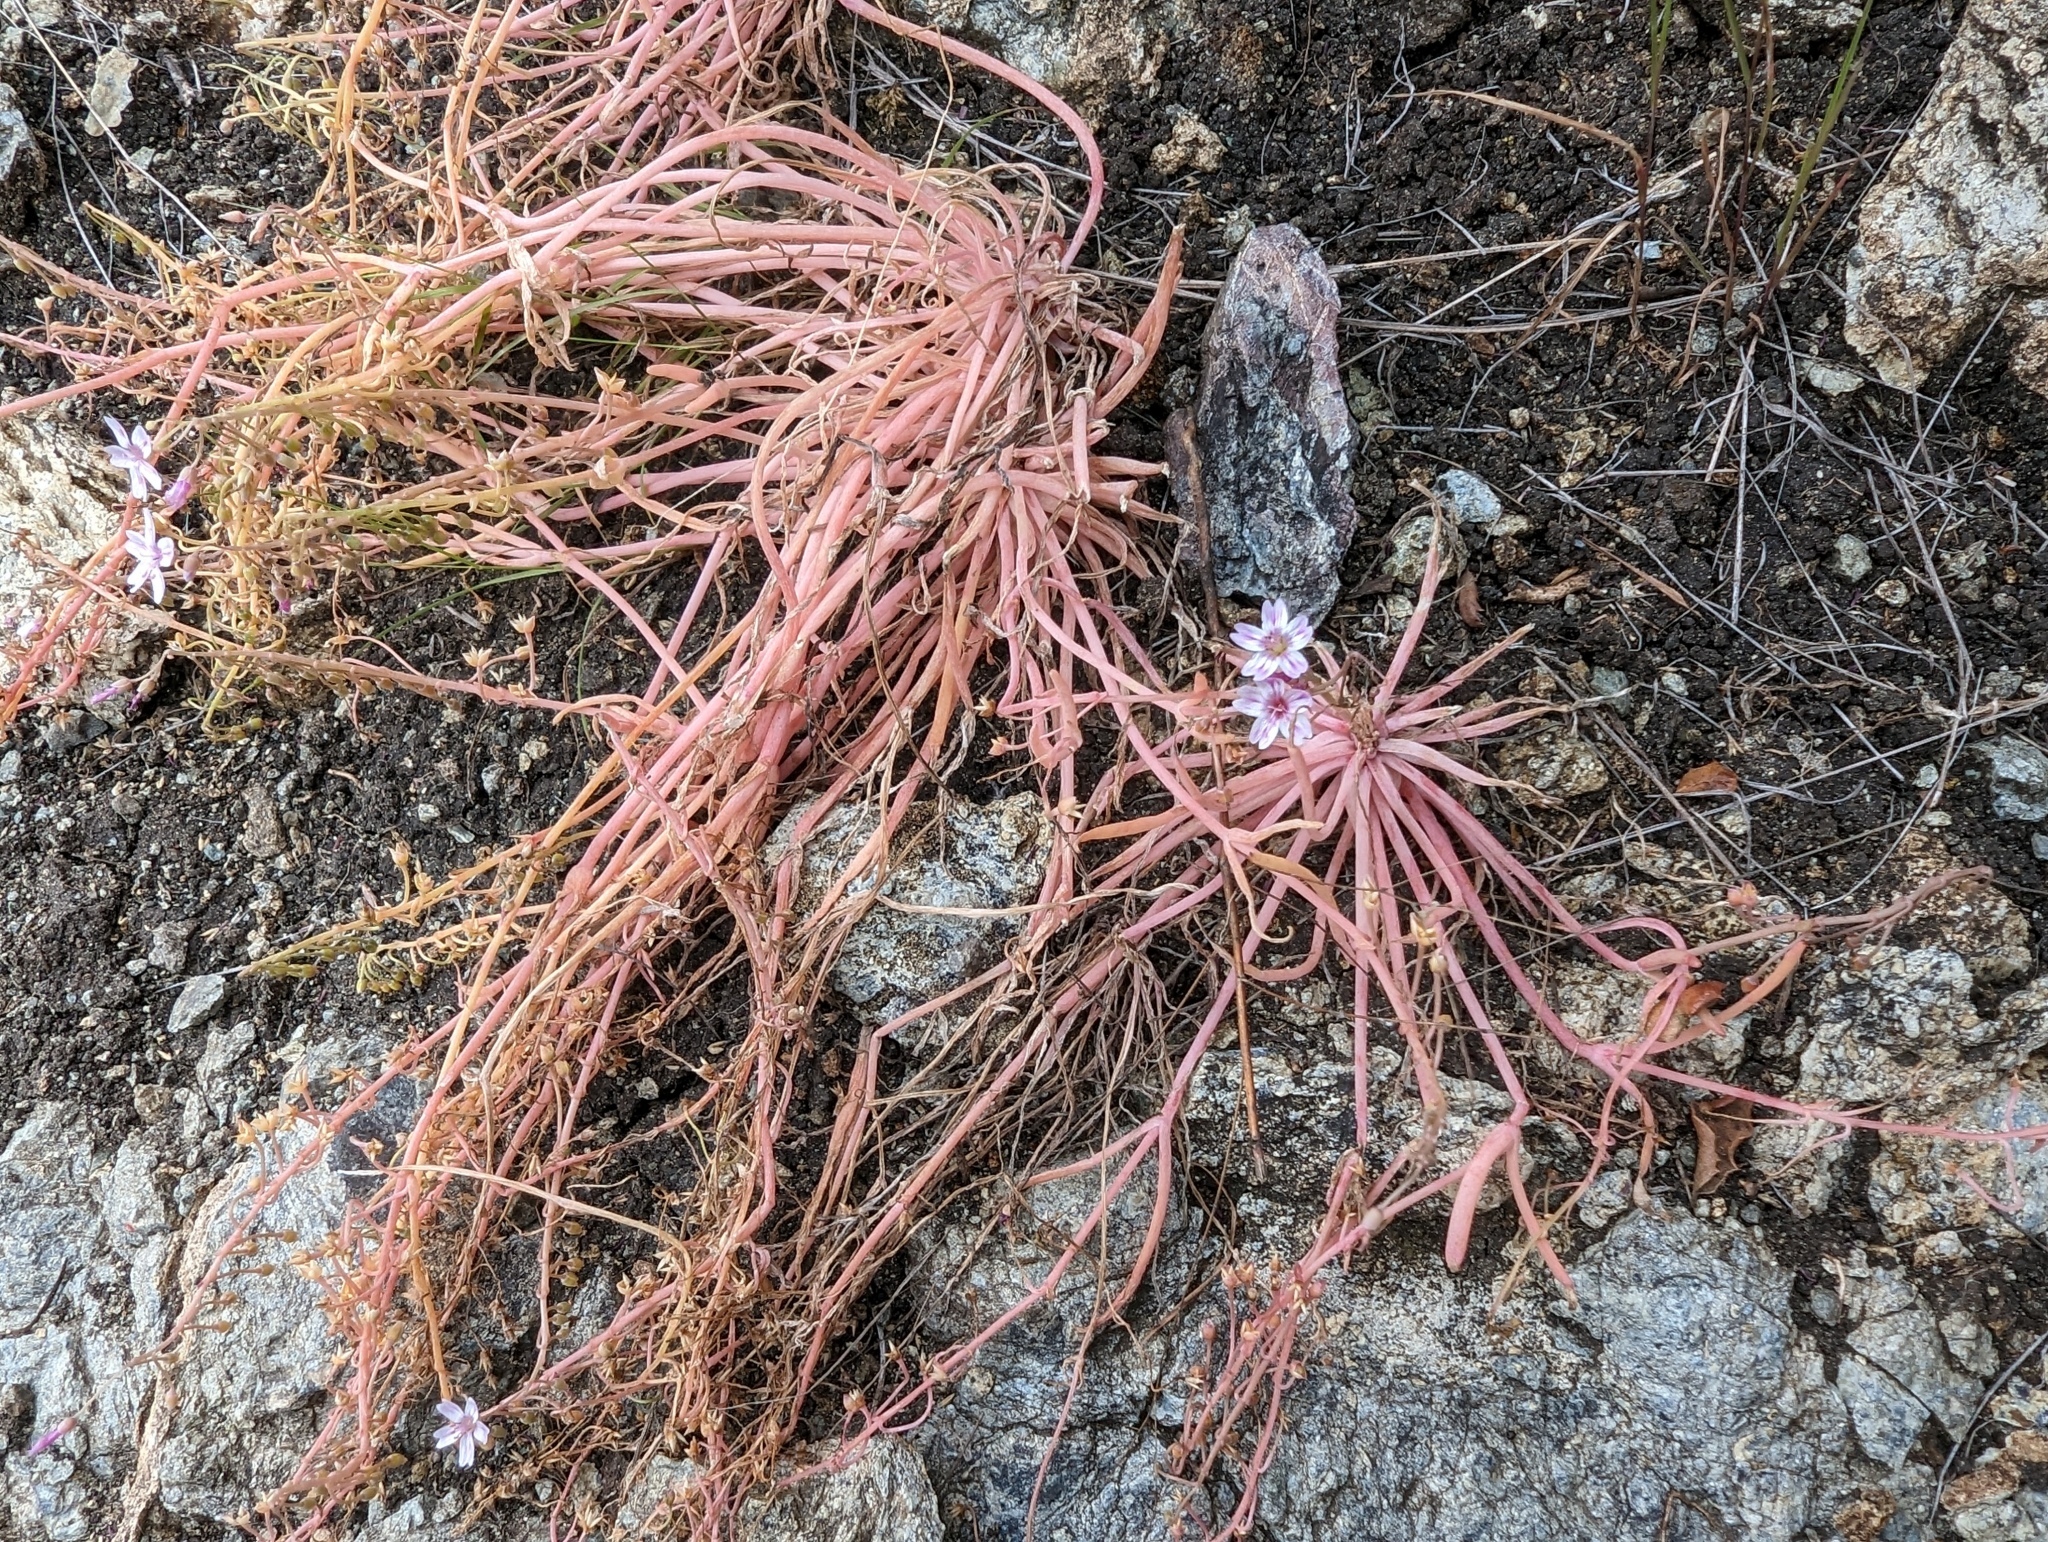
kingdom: Plantae
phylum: Tracheophyta
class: Magnoliopsida
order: Caryophyllales
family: Montiaceae
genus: Claytonia
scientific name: Claytonia gypsophiloides
